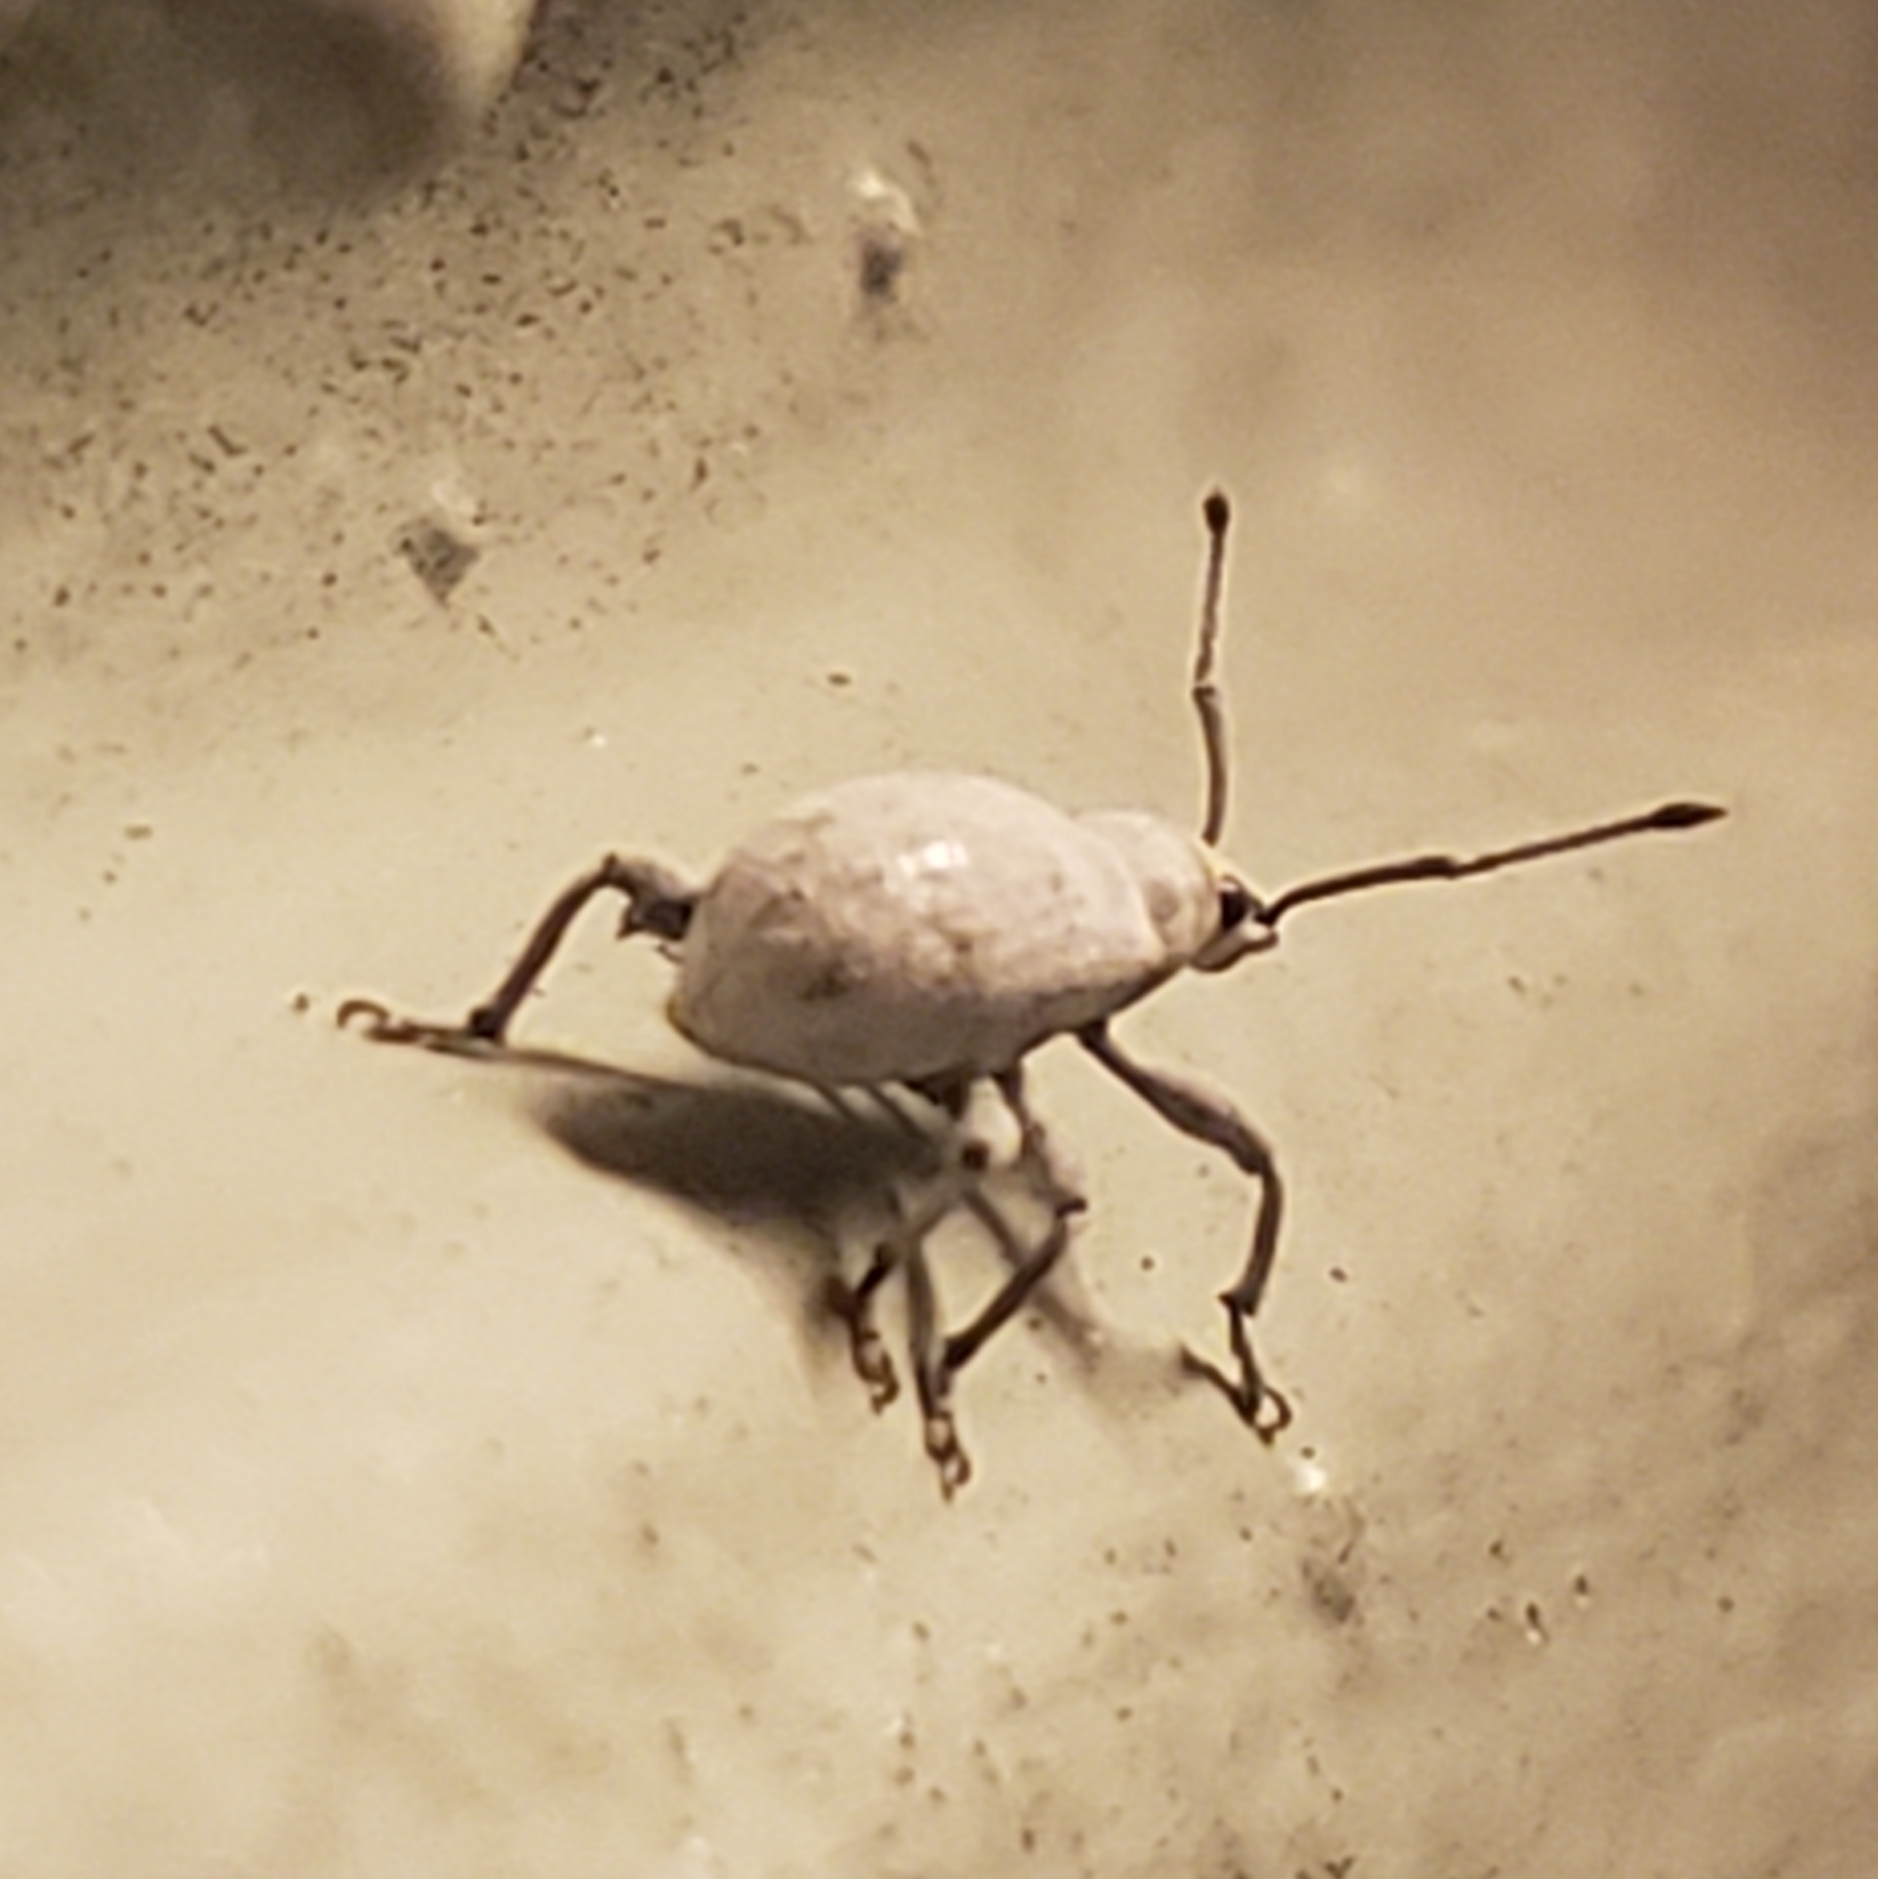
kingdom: Animalia
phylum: Arthropoda
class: Insecta
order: Coleoptera
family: Curculionidae
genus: Myllocerus
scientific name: Myllocerus undecimpustulatus
